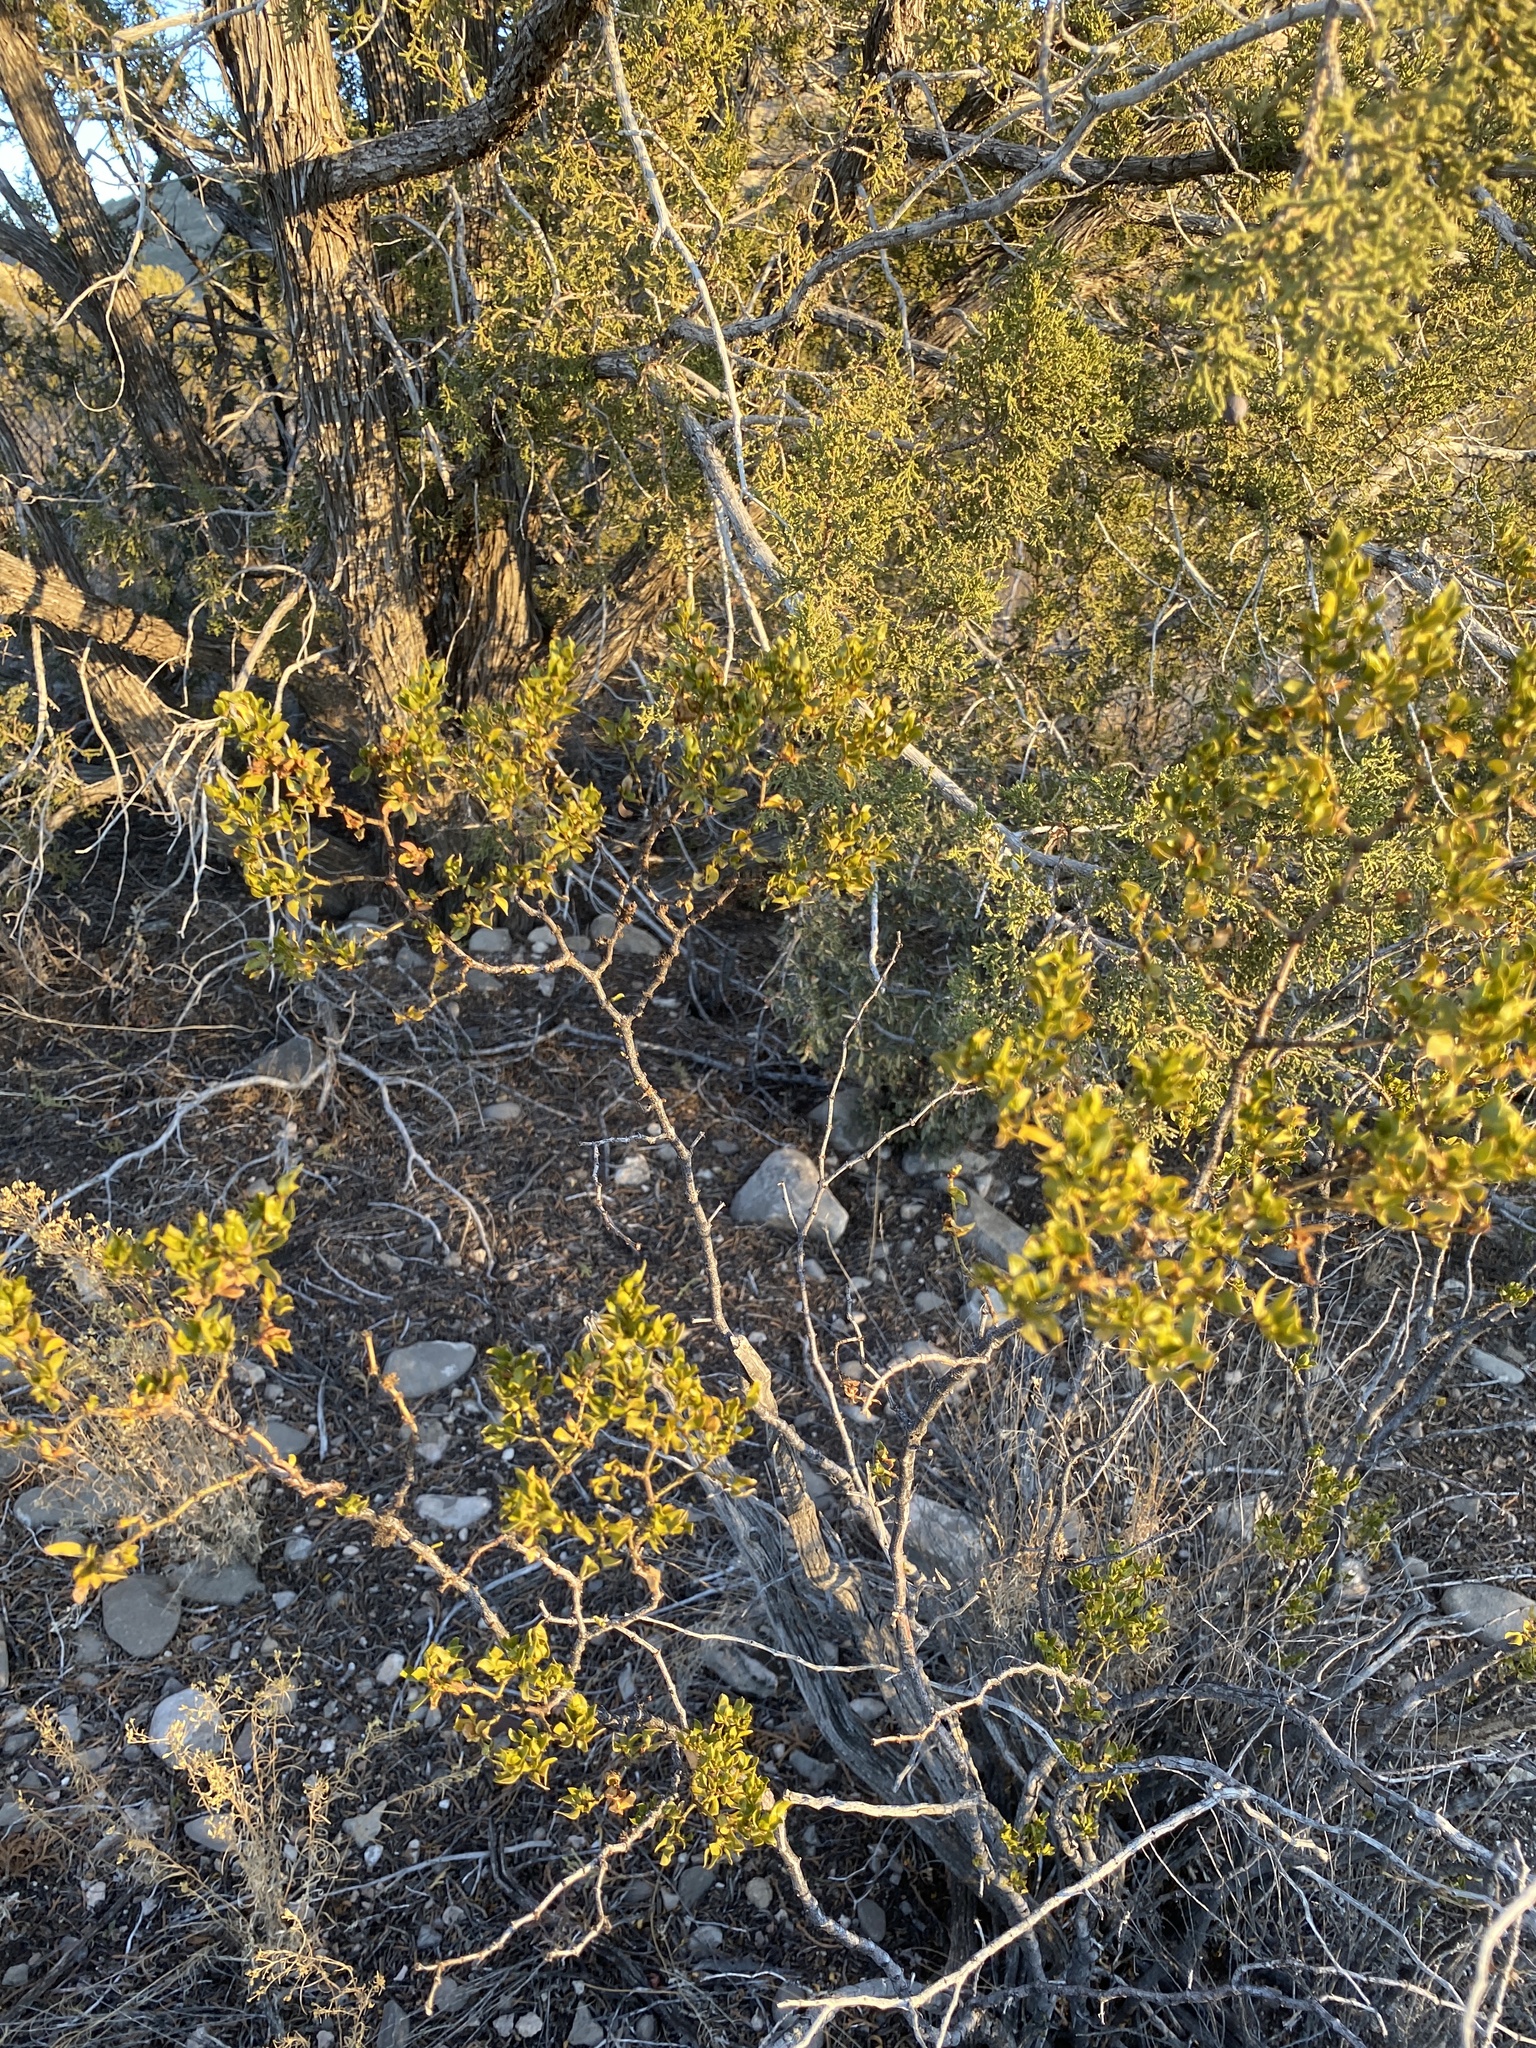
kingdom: Plantae
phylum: Tracheophyta
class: Magnoliopsida
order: Zygophyllales
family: Zygophyllaceae
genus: Larrea
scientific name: Larrea tridentata
